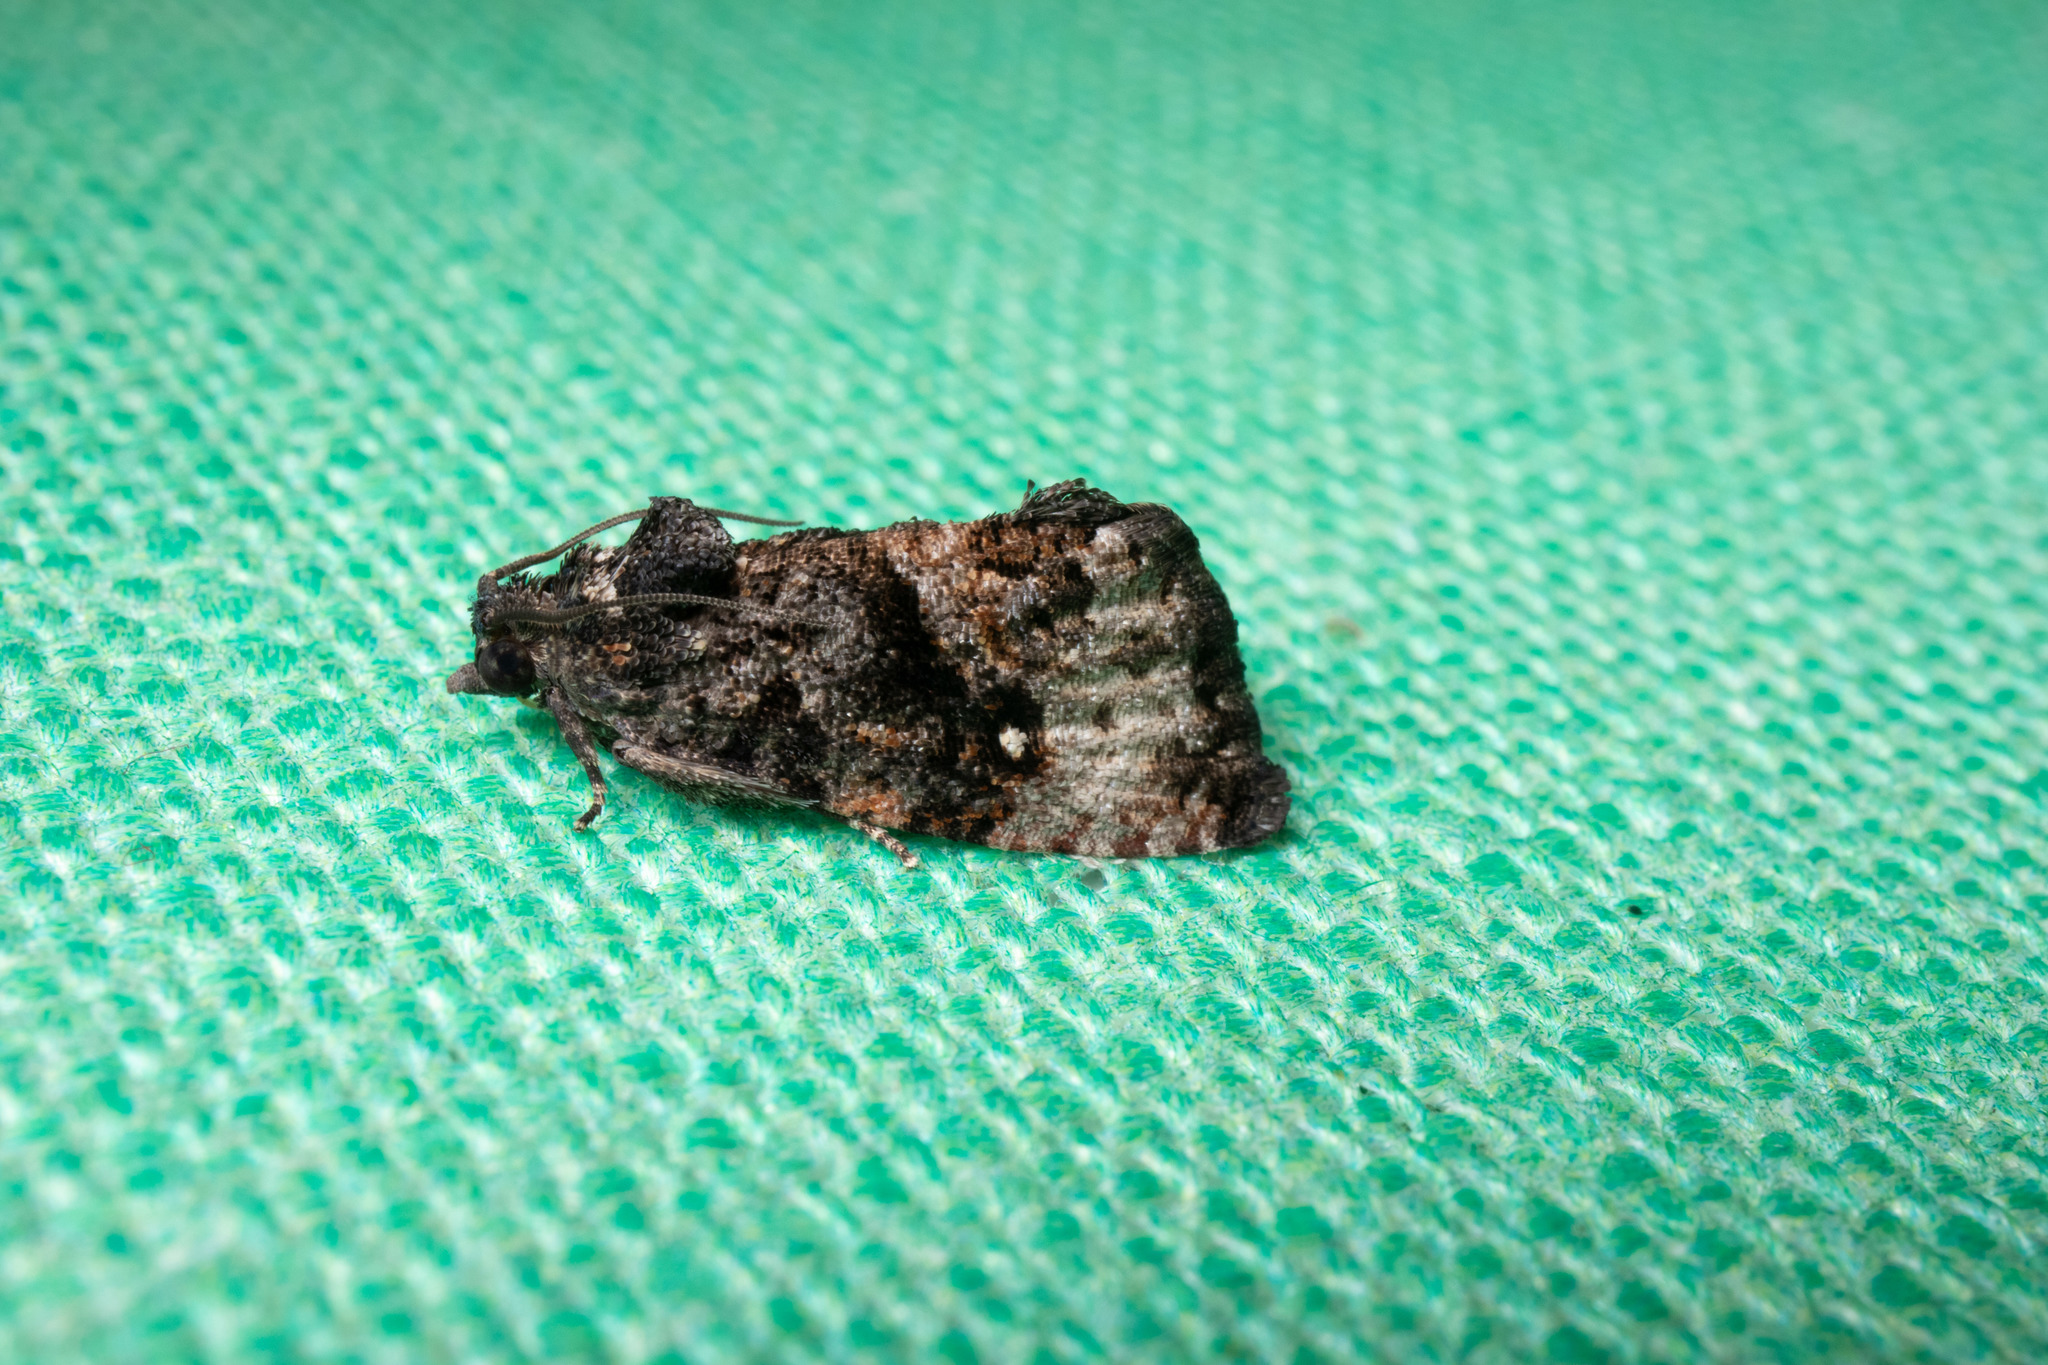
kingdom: Animalia
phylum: Arthropoda
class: Insecta
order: Lepidoptera
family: Tortricidae
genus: Gymnandrosoma
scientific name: Gymnandrosoma punctidiscanum
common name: Dotted ecdytolopha moth
